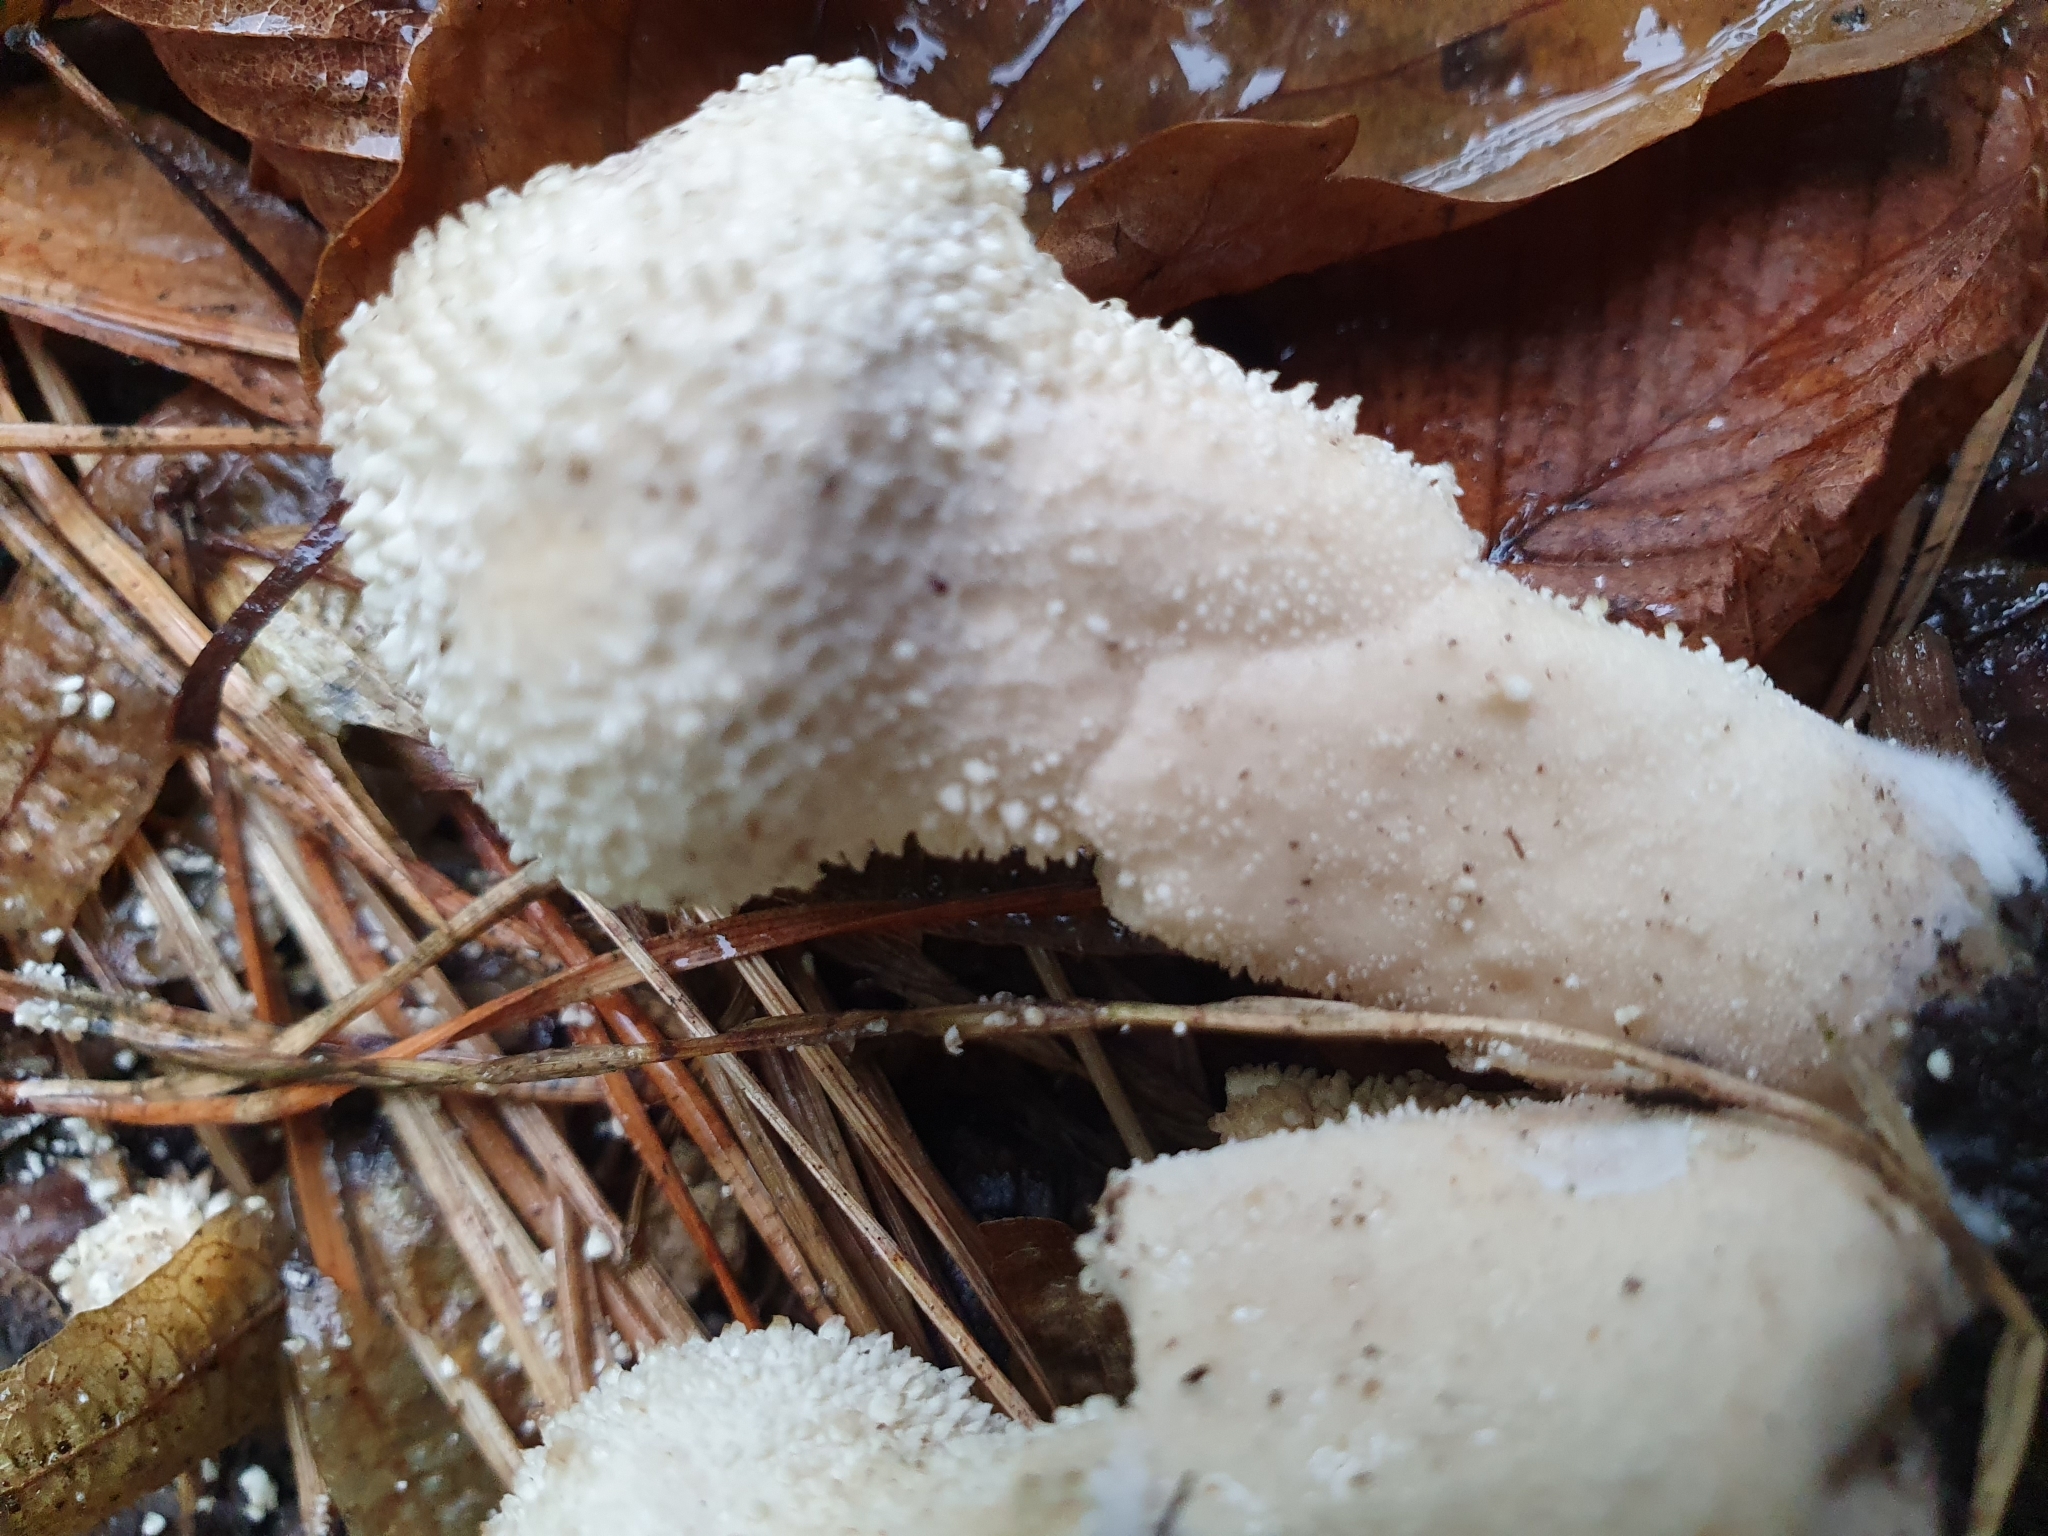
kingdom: Fungi
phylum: Basidiomycota
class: Agaricomycetes
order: Agaricales
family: Lycoperdaceae
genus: Lycoperdon
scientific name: Lycoperdon perlatum
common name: Common puffball
